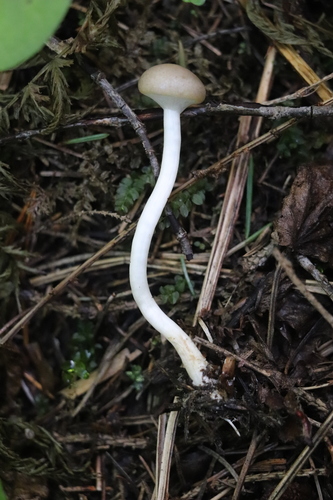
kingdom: Fungi
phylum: Basidiomycota
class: Agaricomycetes
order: Agaricales
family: Strophariaceae
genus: Agrocybe
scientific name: Agrocybe praecox
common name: Spring fieldcap
